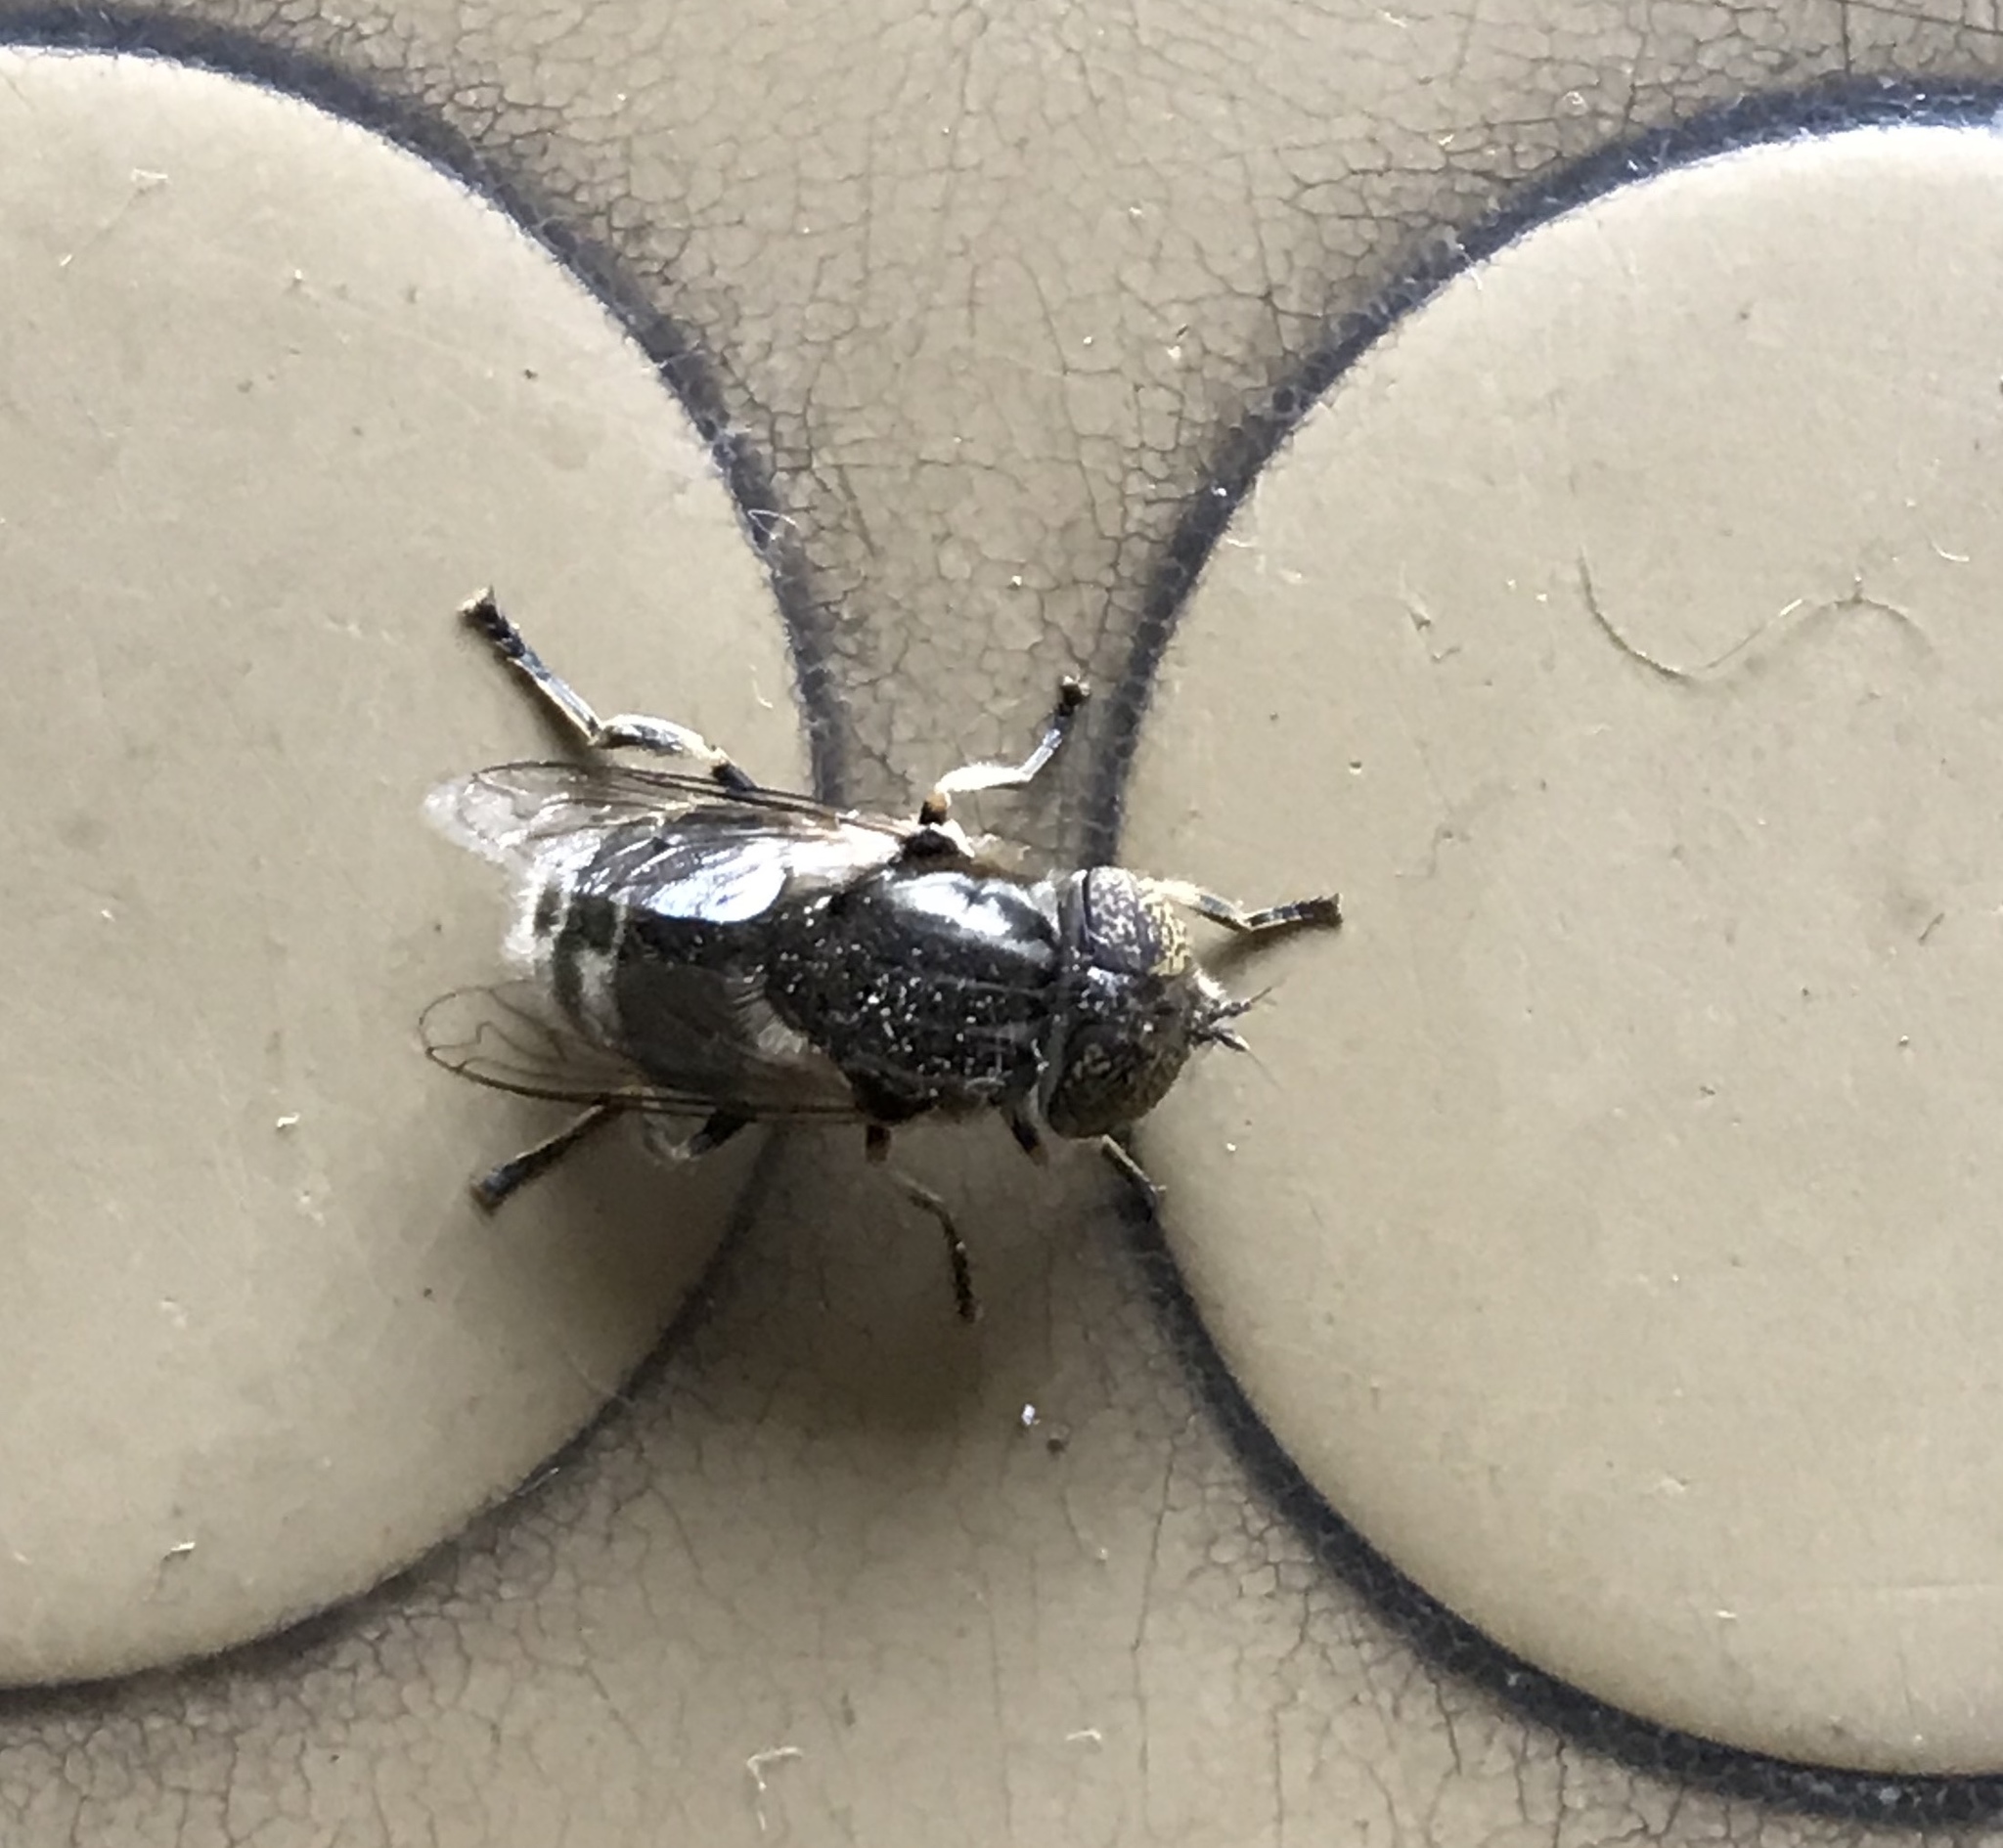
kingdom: Animalia
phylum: Arthropoda
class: Insecta
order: Diptera
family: Syrphidae
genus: Eristalinus
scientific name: Eristalinus aeneus
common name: Syrphid fly
